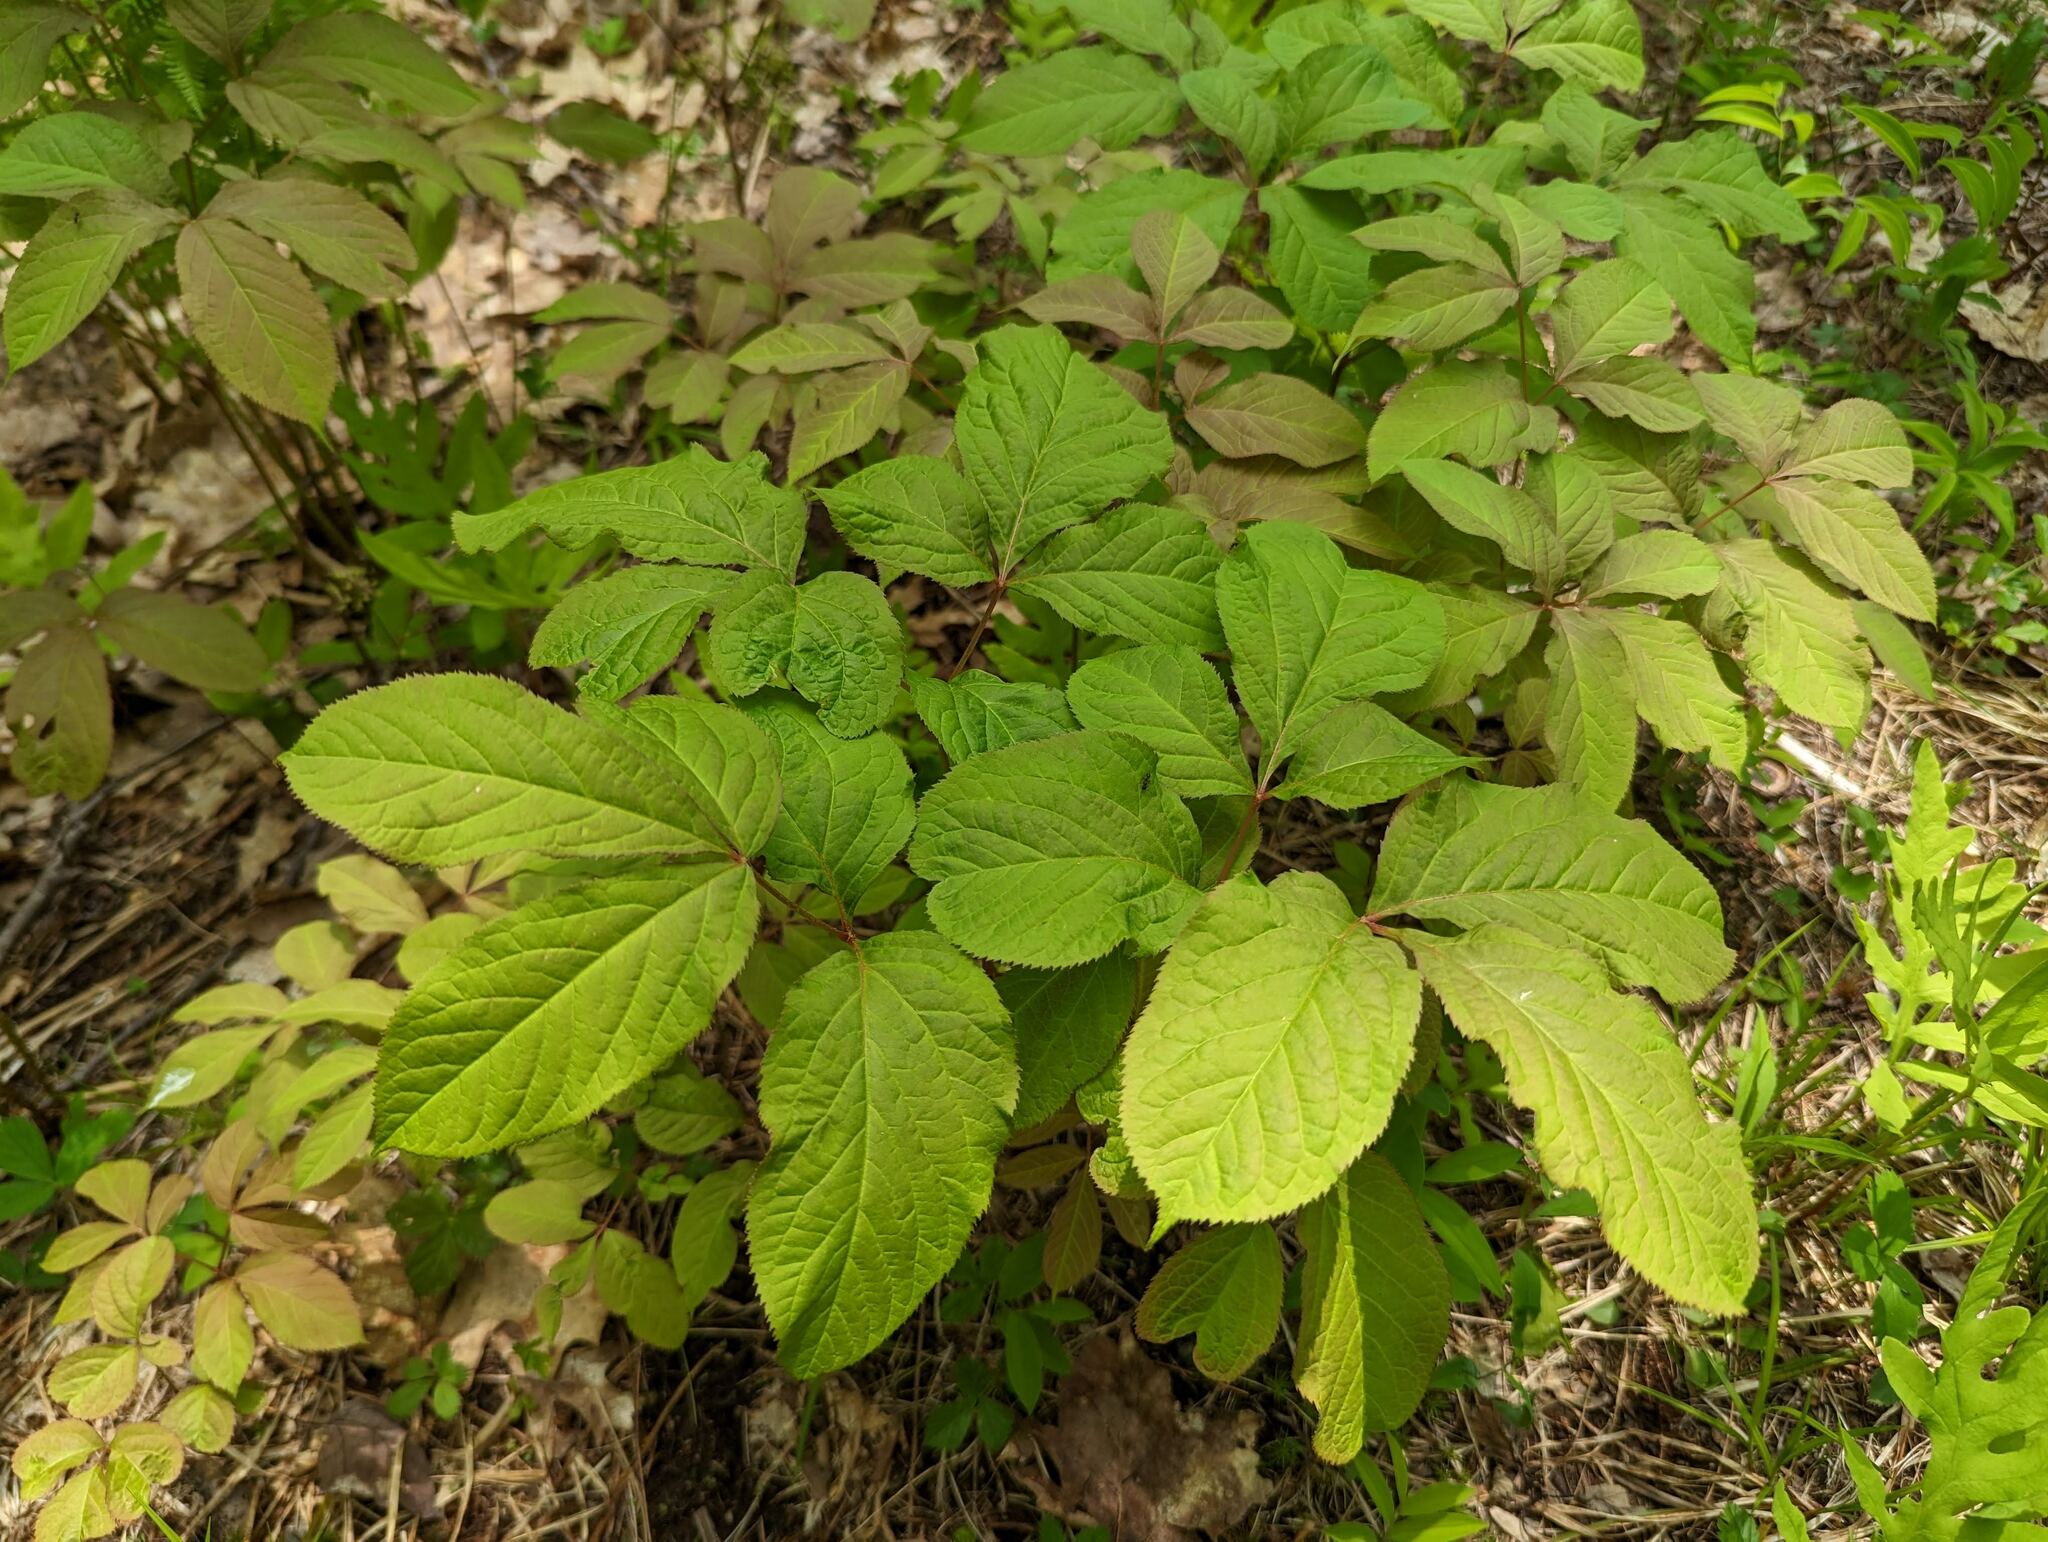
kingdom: Plantae
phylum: Tracheophyta
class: Magnoliopsida
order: Apiales
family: Araliaceae
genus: Aralia
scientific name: Aralia nudicaulis
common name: Wild sarsaparilla
